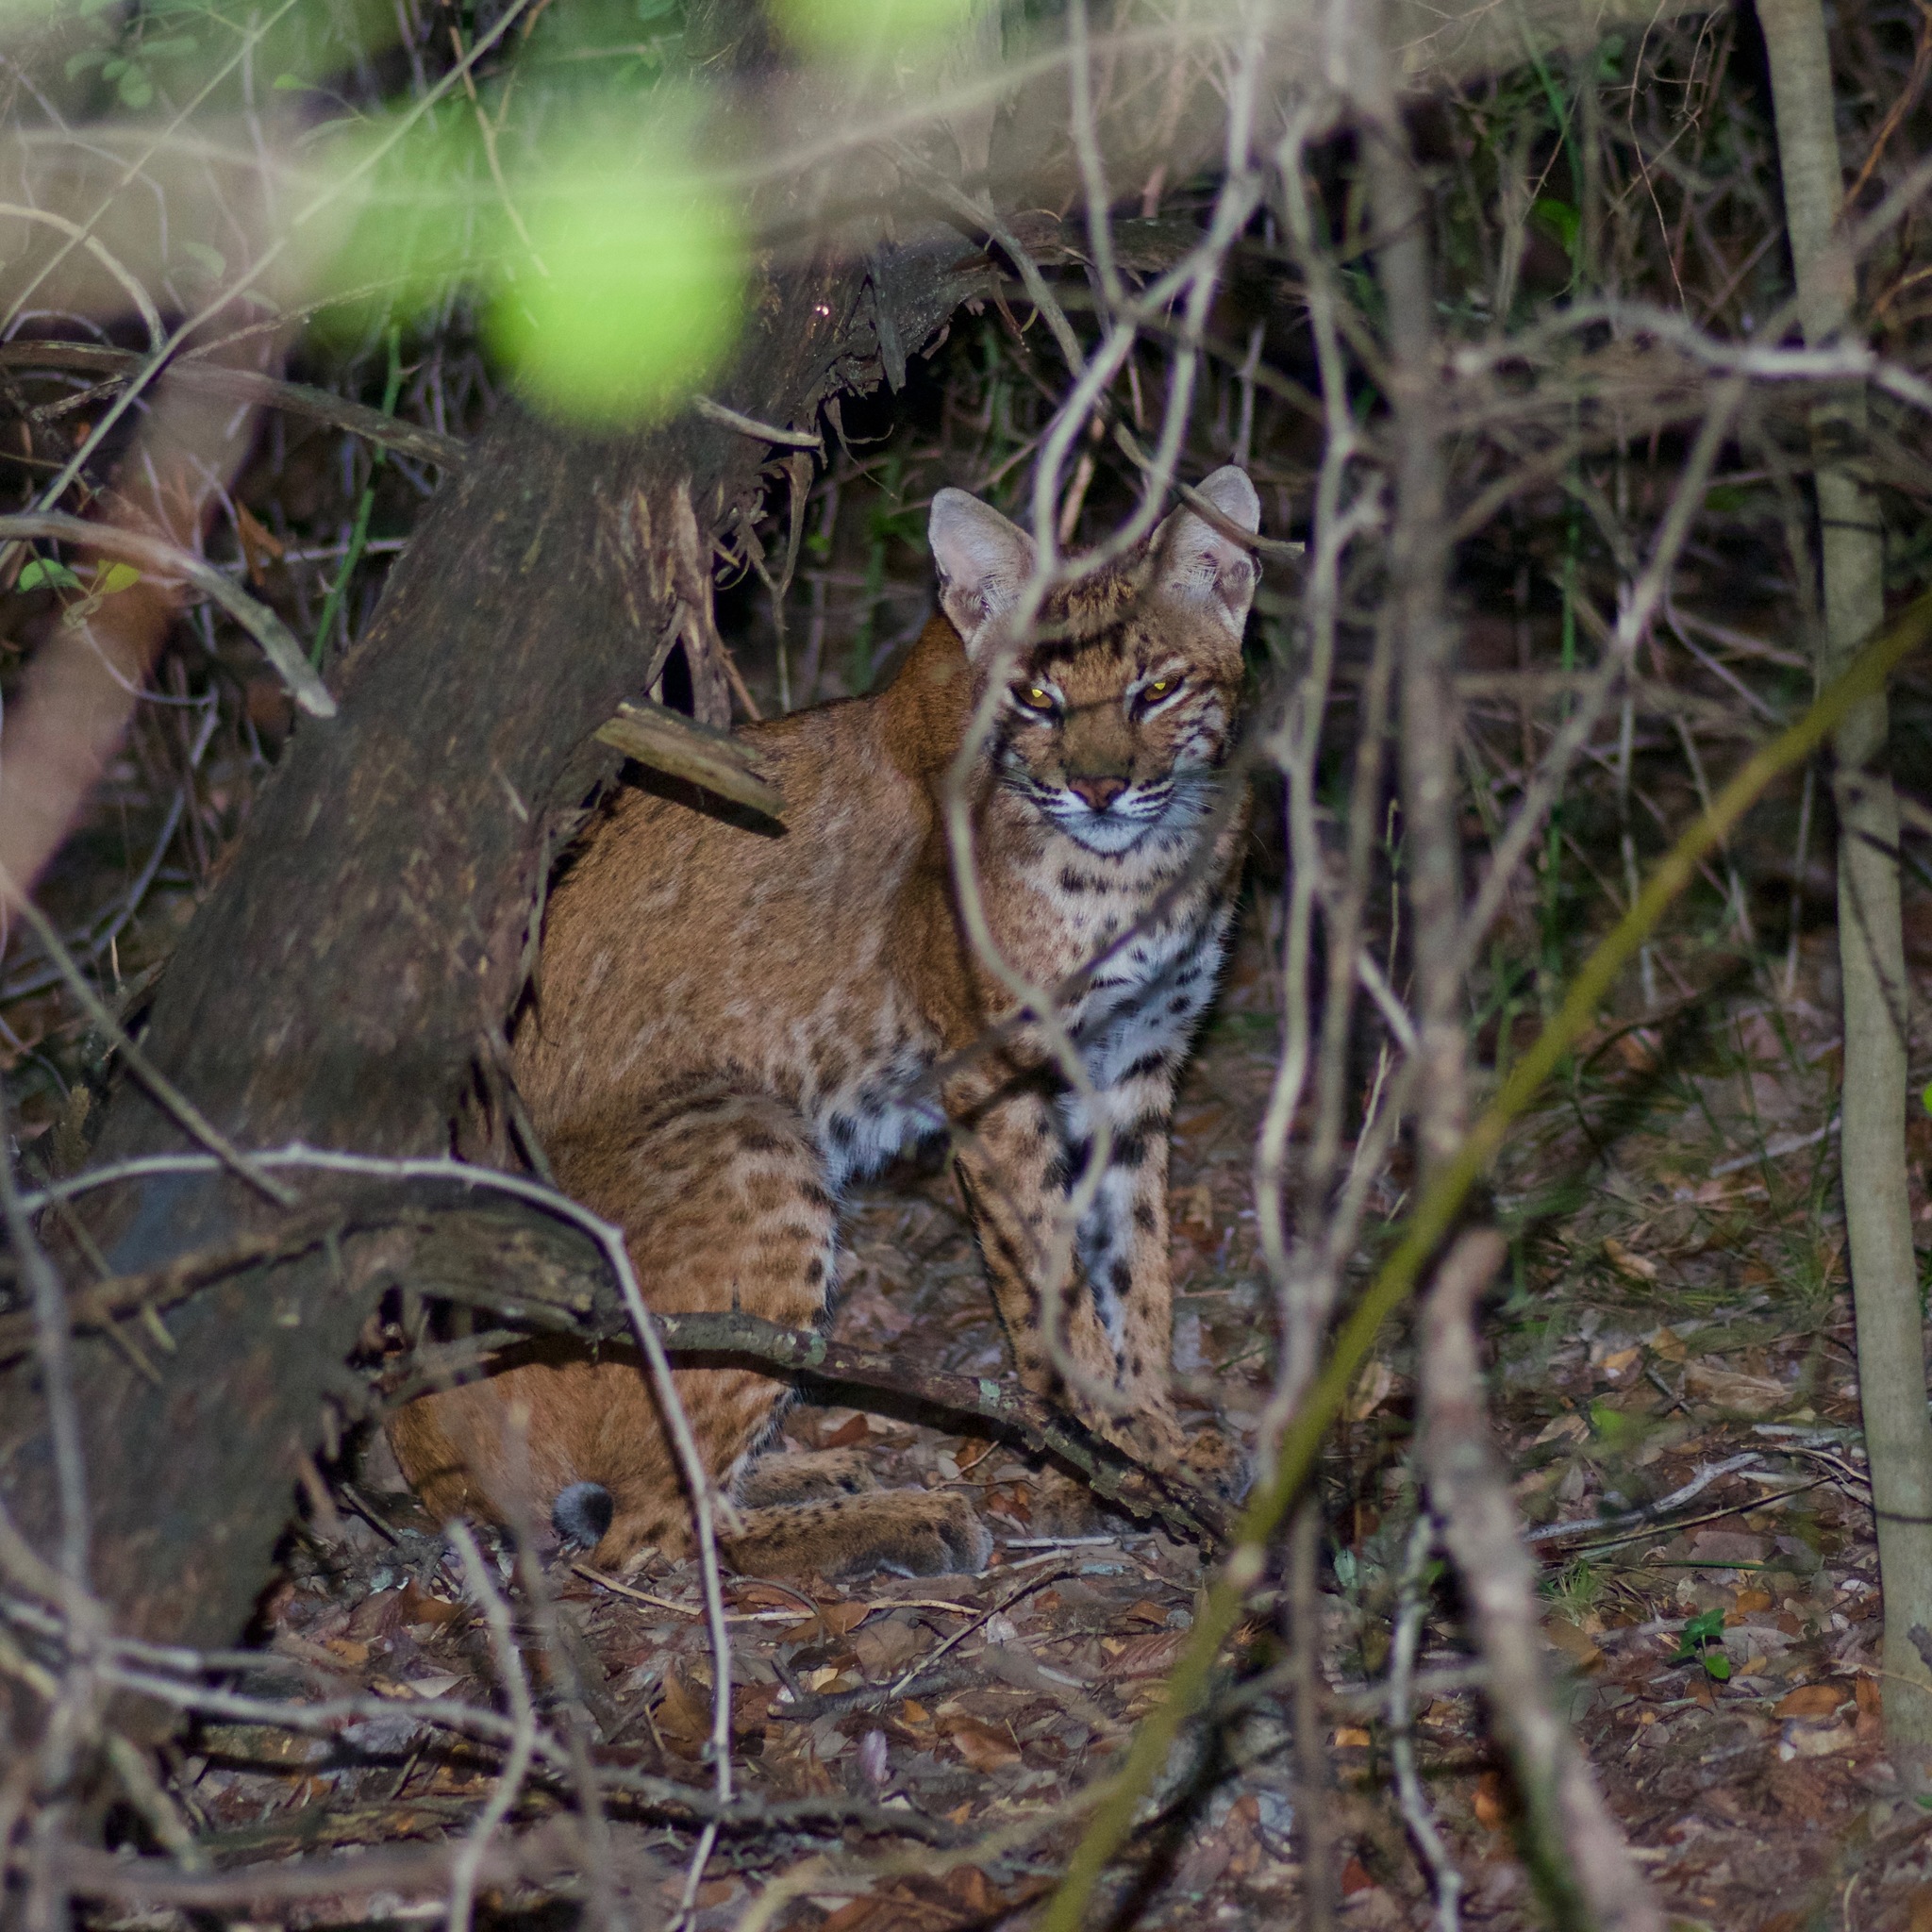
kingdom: Animalia
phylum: Chordata
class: Mammalia
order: Carnivora
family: Felidae
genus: Lynx
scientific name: Lynx rufus
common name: Bobcat
